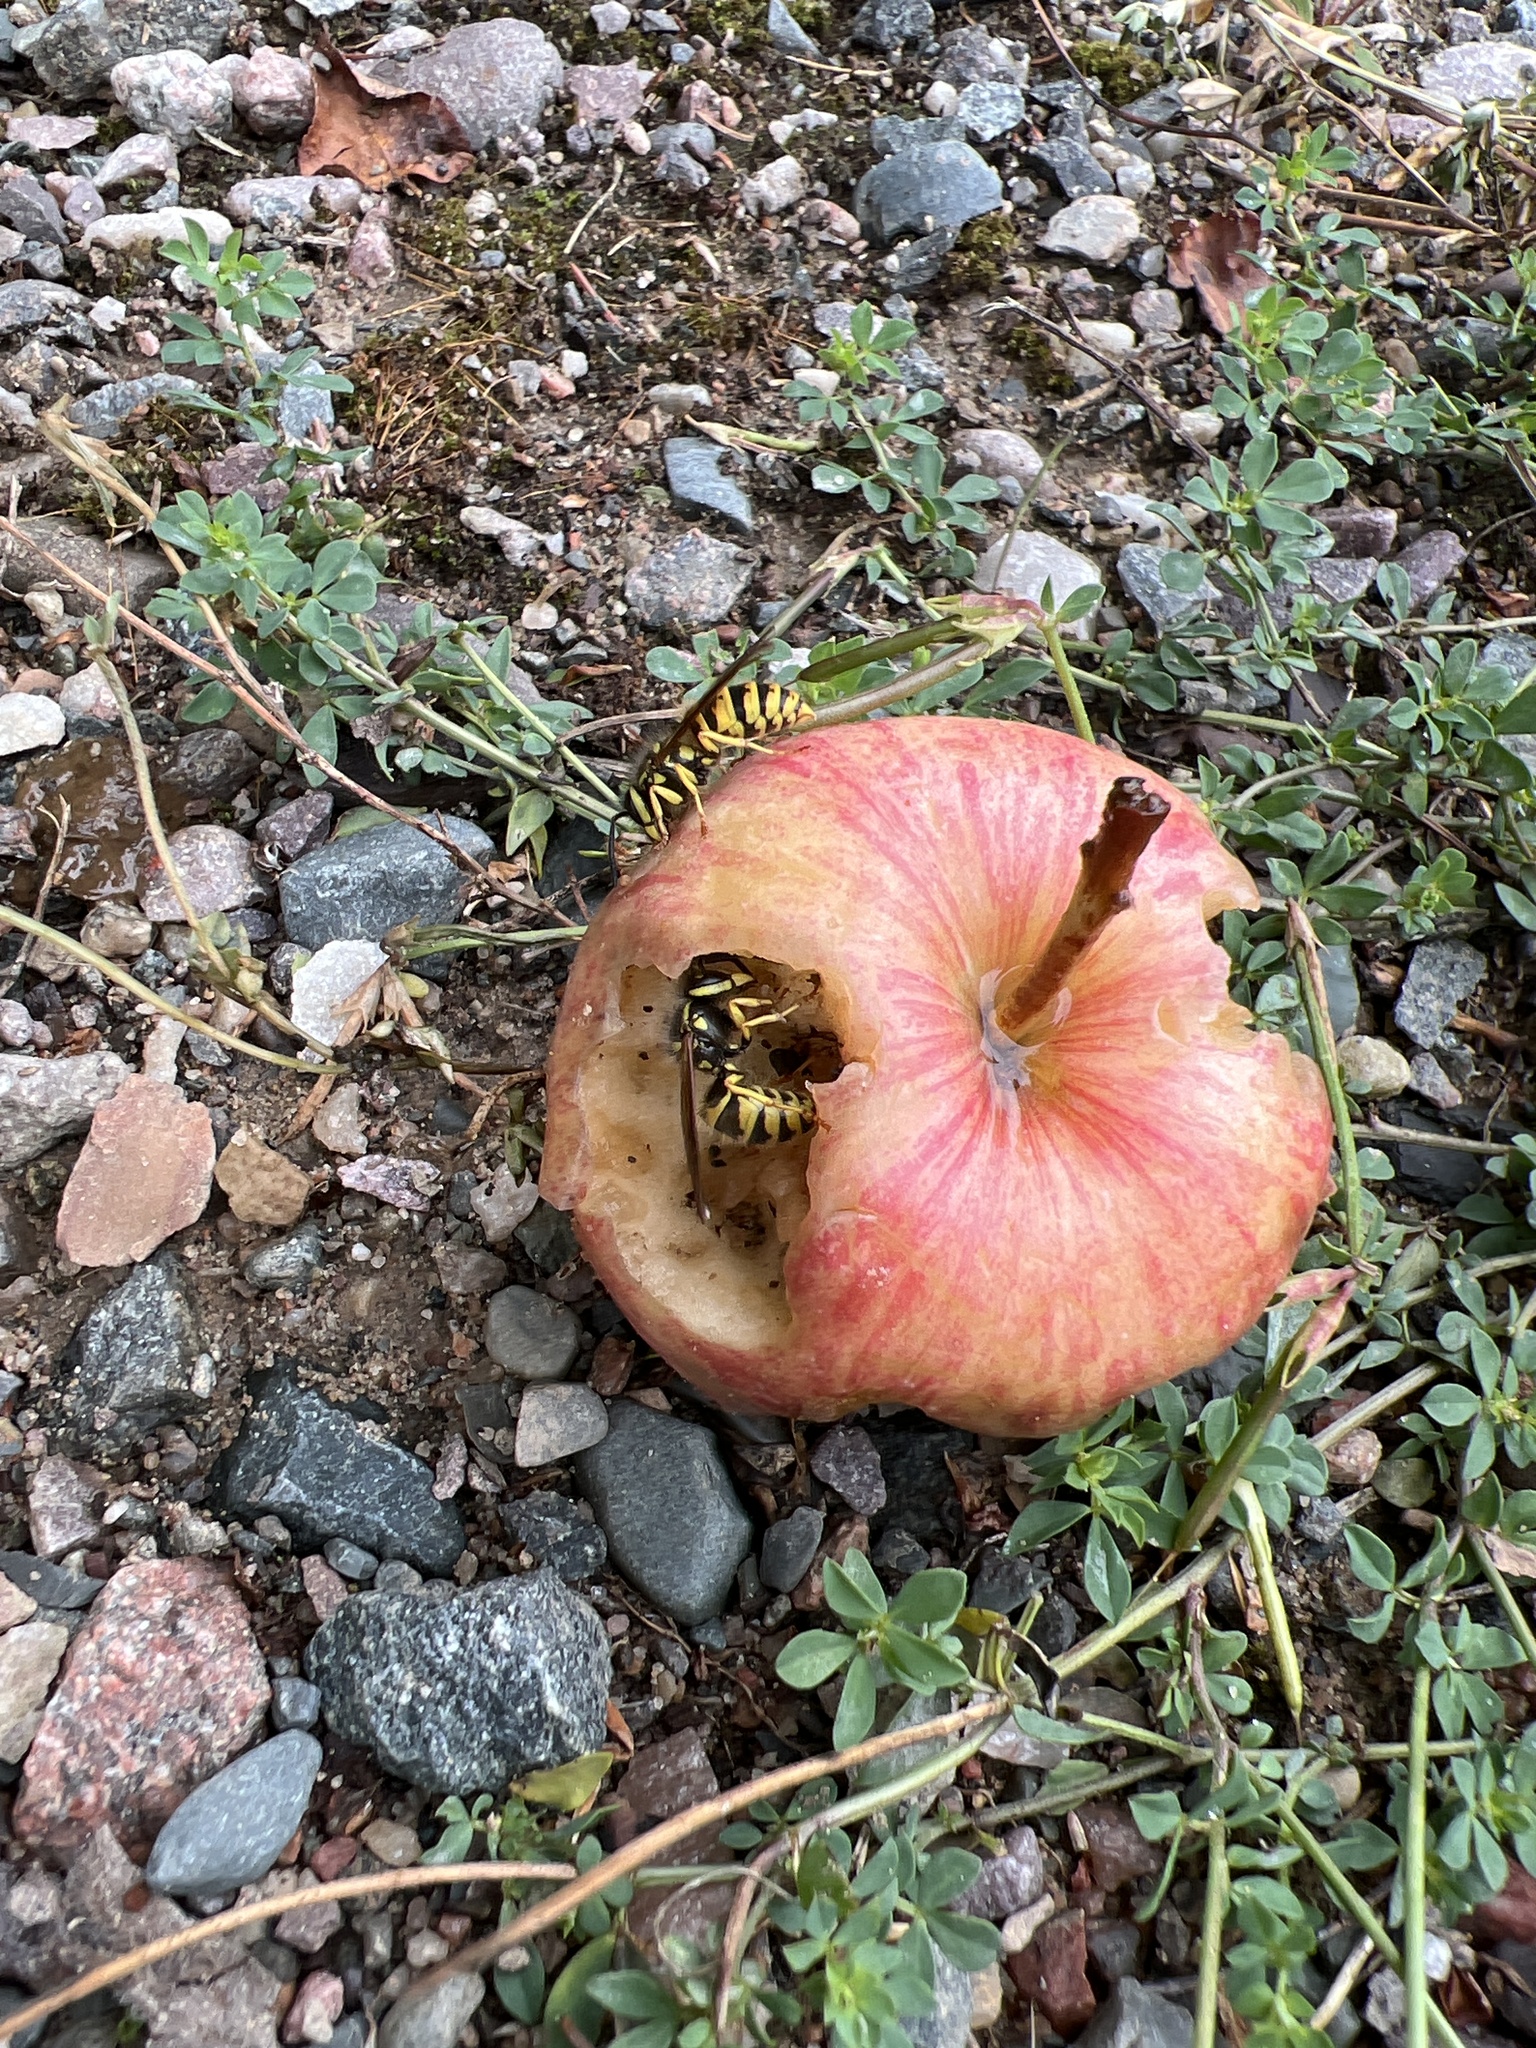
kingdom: Animalia
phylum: Arthropoda
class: Insecta
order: Hymenoptera
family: Vespidae
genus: Vespula
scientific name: Vespula
